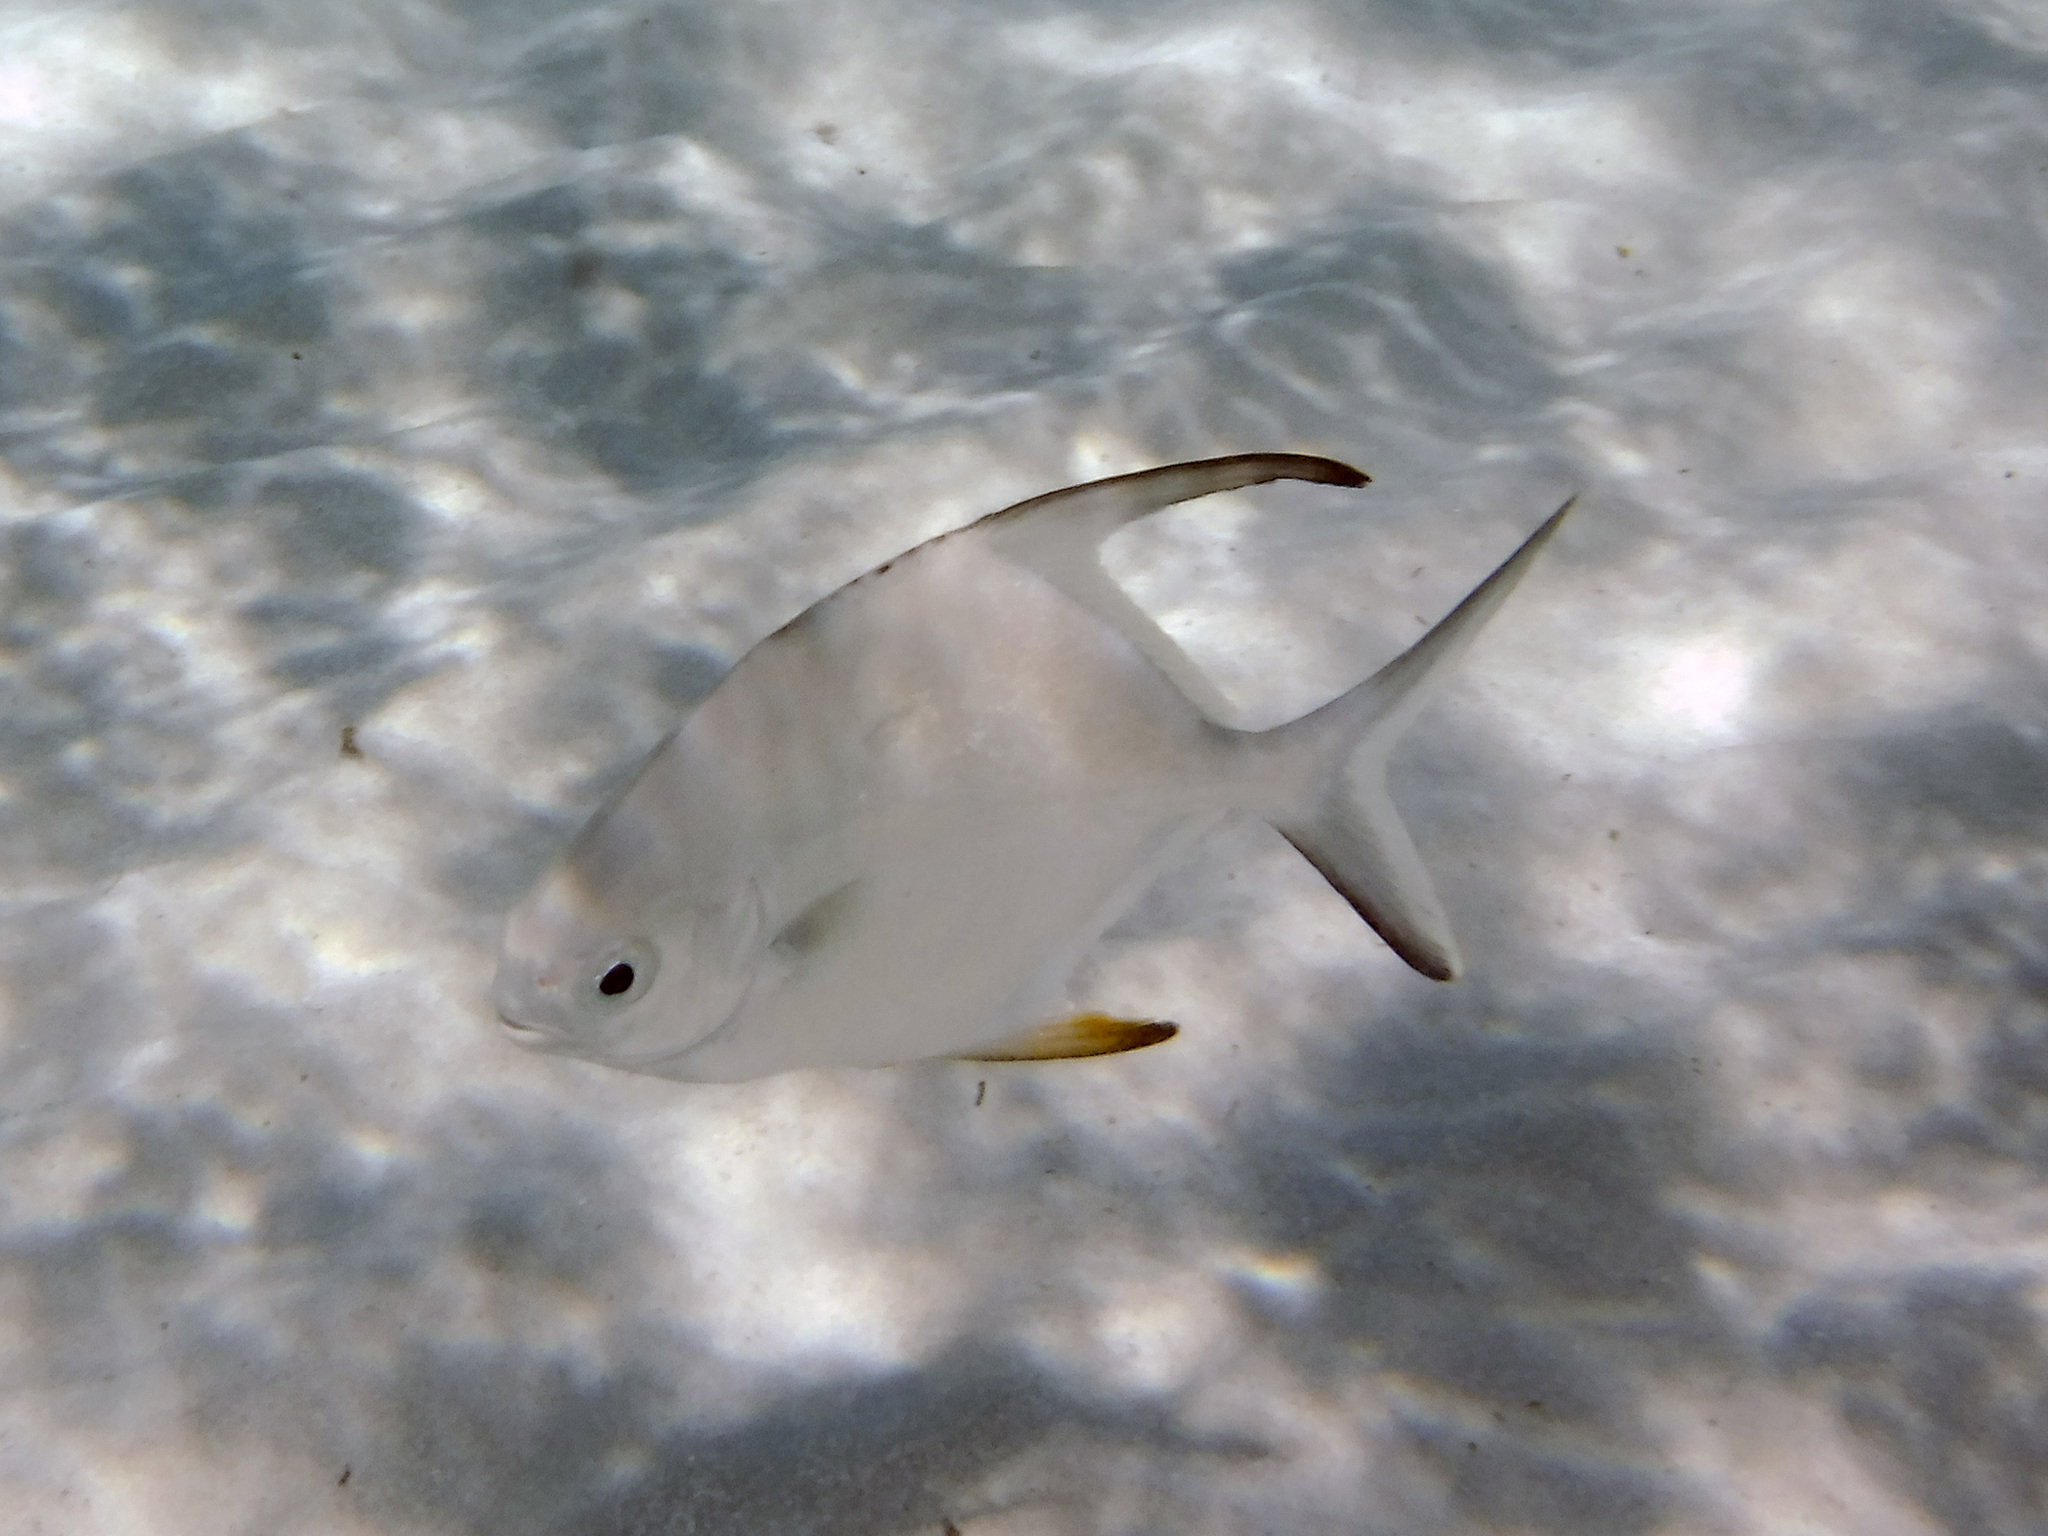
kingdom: Animalia
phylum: Chordata
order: Perciformes
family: Carangidae
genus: Trachinotus
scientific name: Trachinotus falcatus
